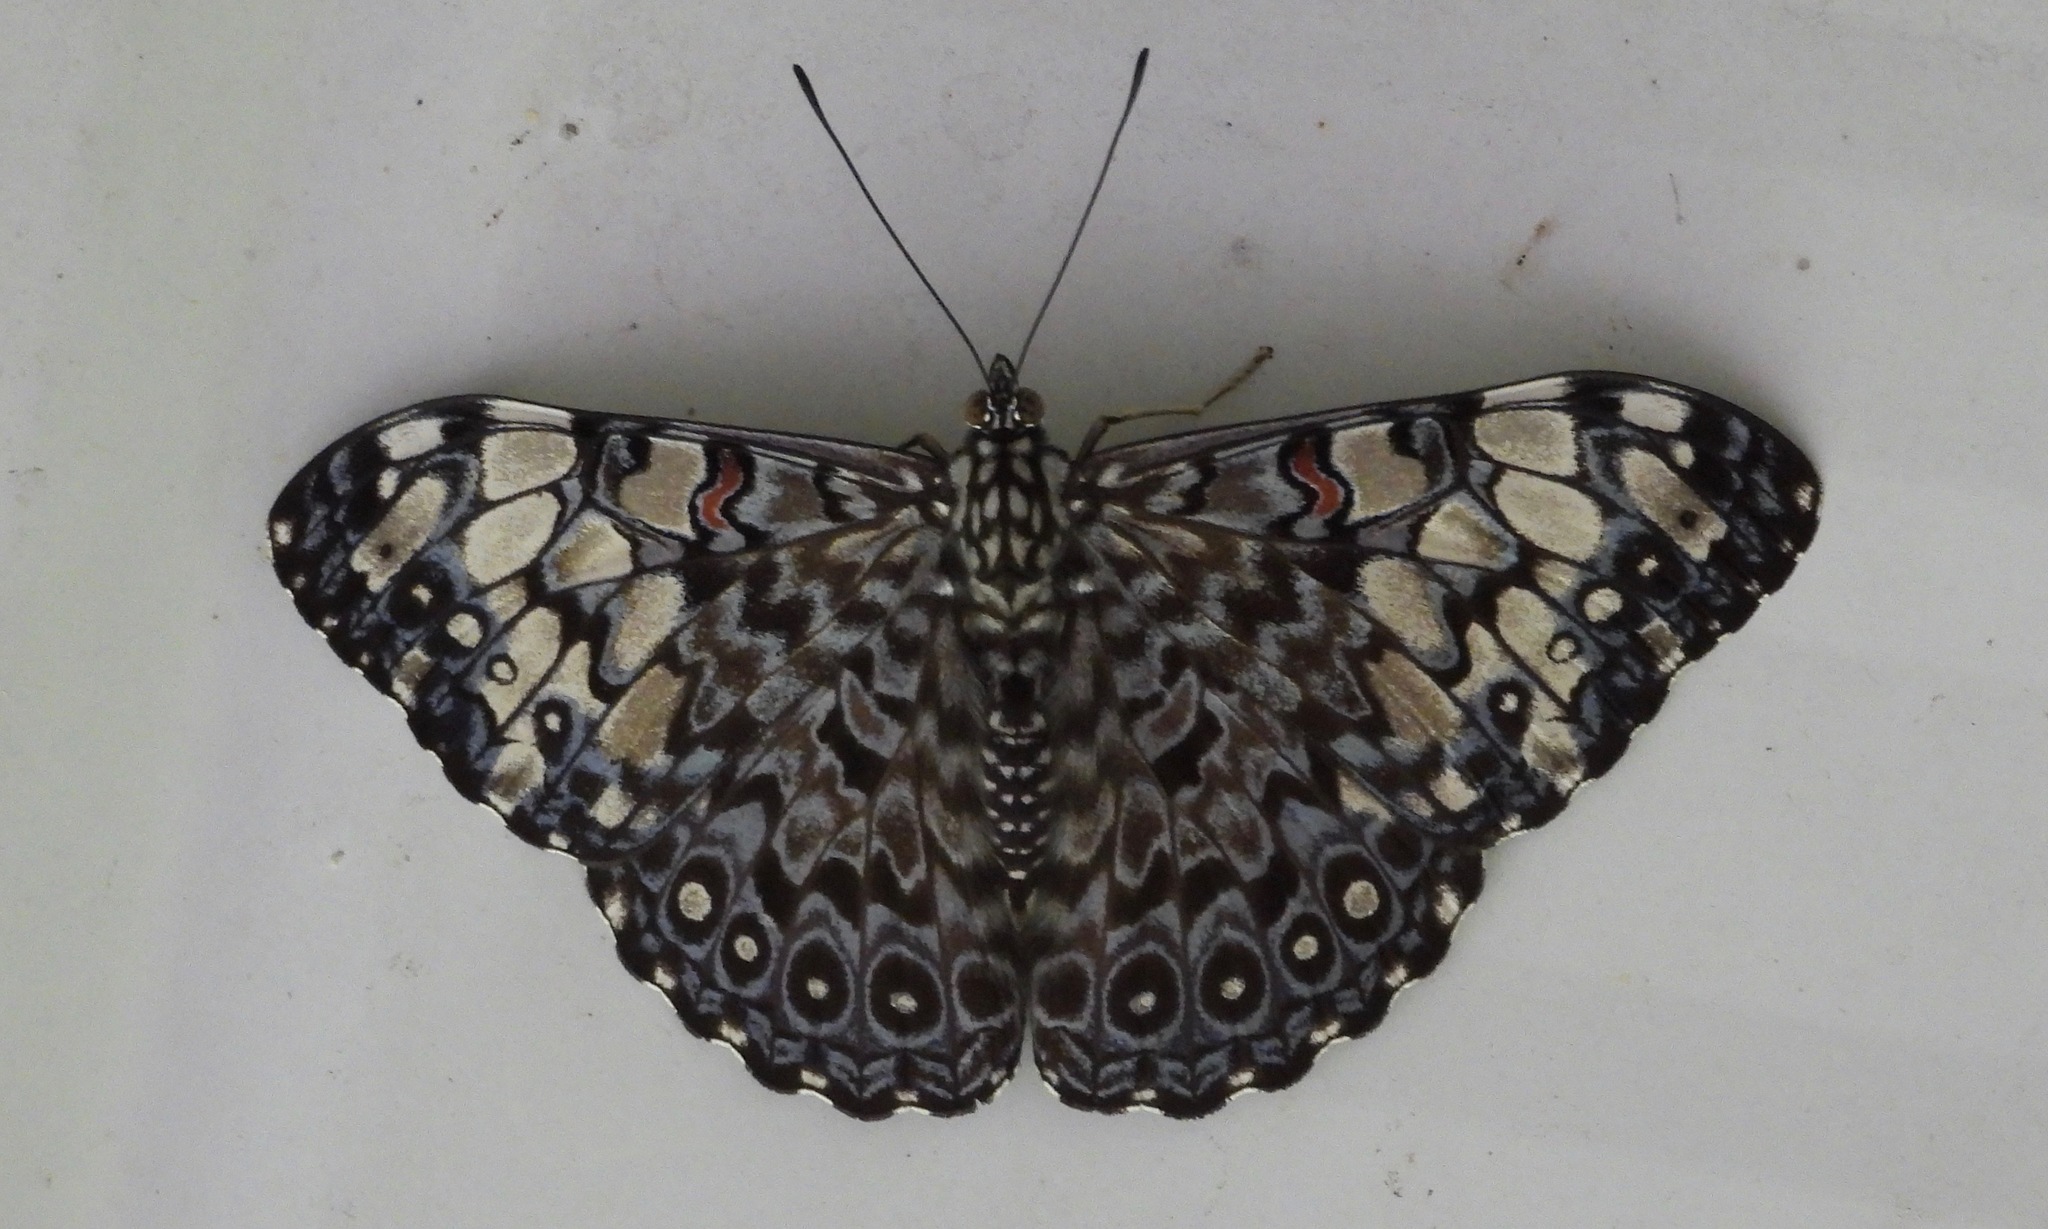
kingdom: Animalia
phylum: Arthropoda
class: Insecta
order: Lepidoptera
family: Nymphalidae
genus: Hamadryas
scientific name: Hamadryas feronia
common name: Variable cracker
